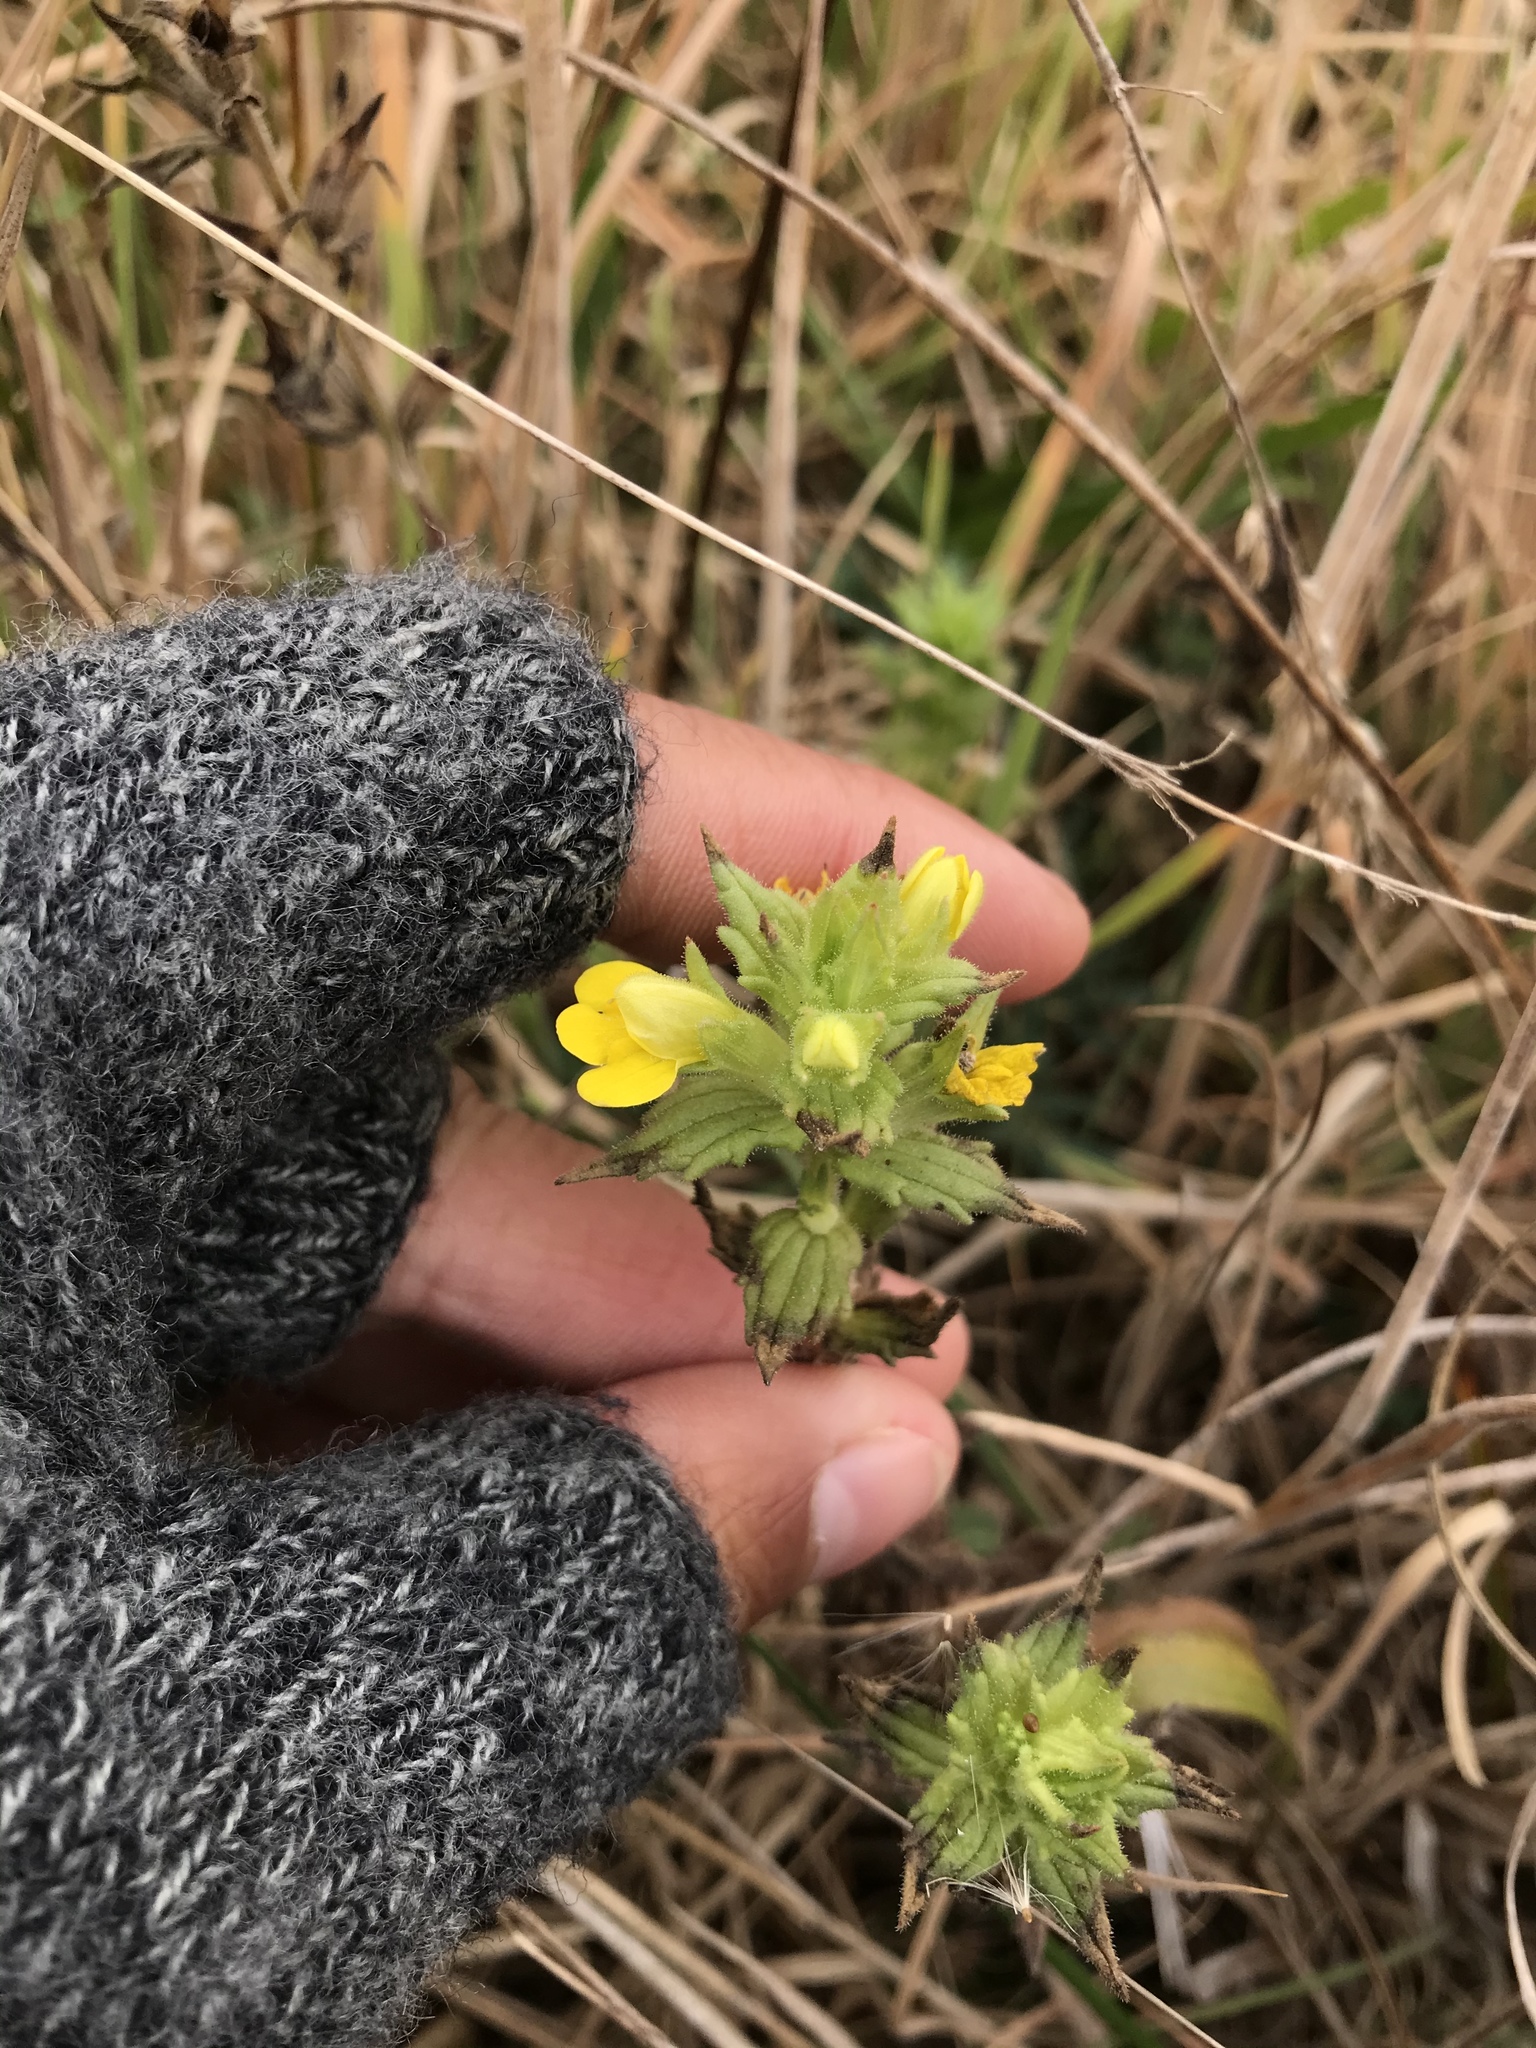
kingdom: Plantae
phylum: Tracheophyta
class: Magnoliopsida
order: Lamiales
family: Orobanchaceae
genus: Bellardia
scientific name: Bellardia viscosa
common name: Sticky parentucellia
